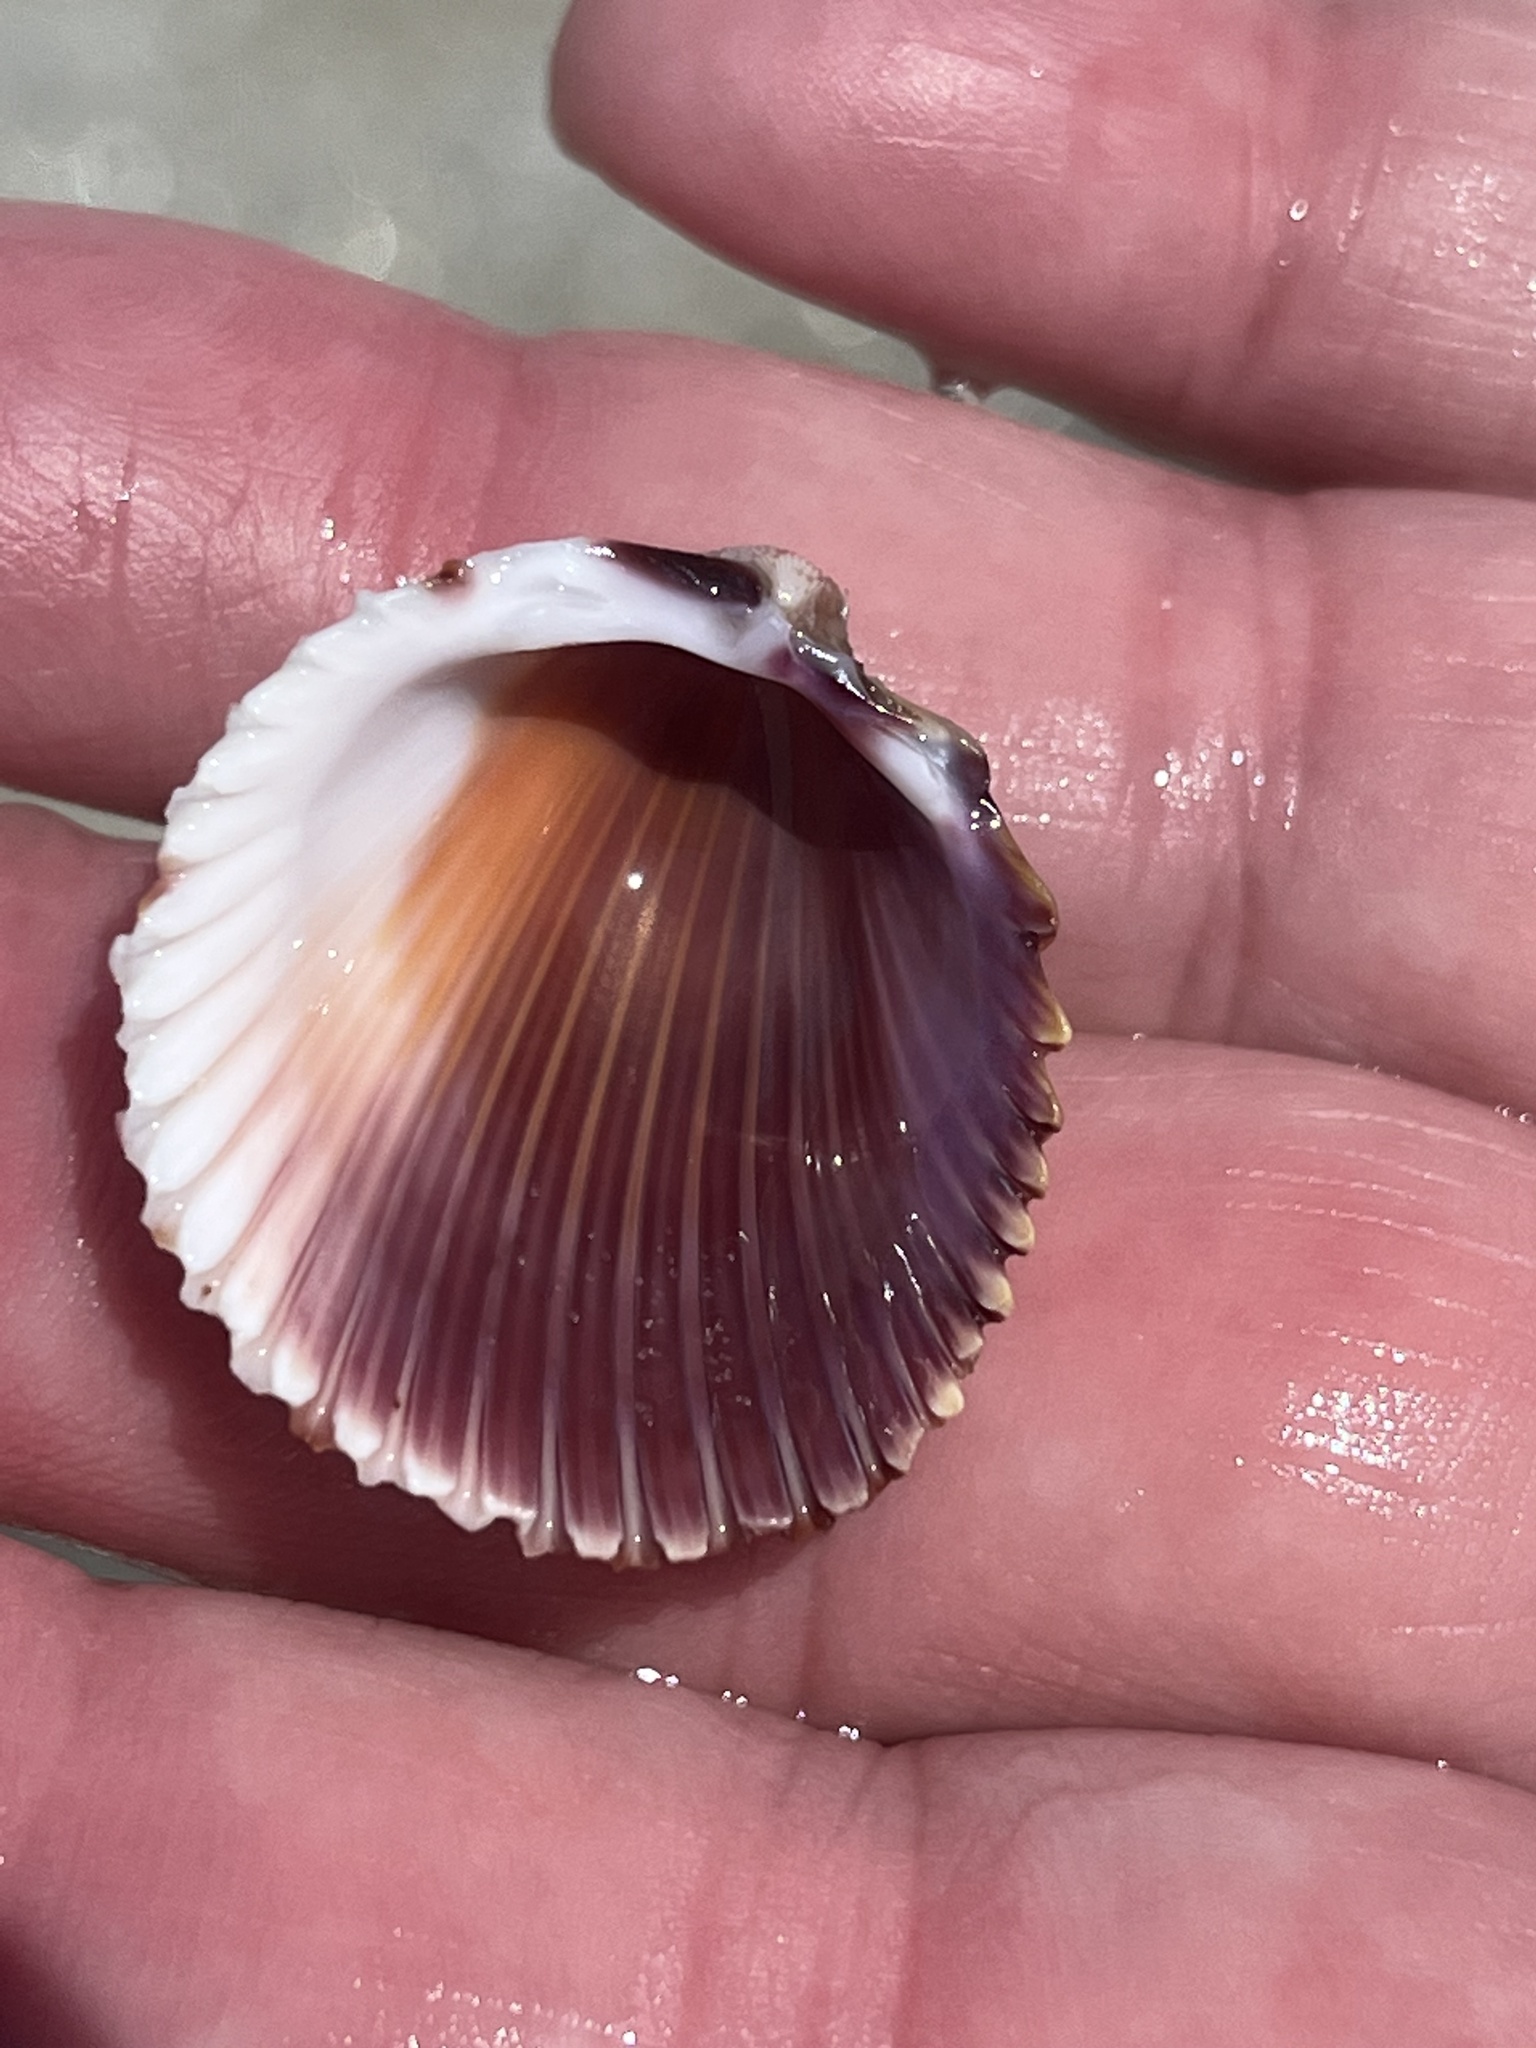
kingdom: Animalia
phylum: Mollusca
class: Bivalvia
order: Cardiida
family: Cardiidae
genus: Trachycardium
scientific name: Trachycardium egmontianum
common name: Florida pricklycockle
